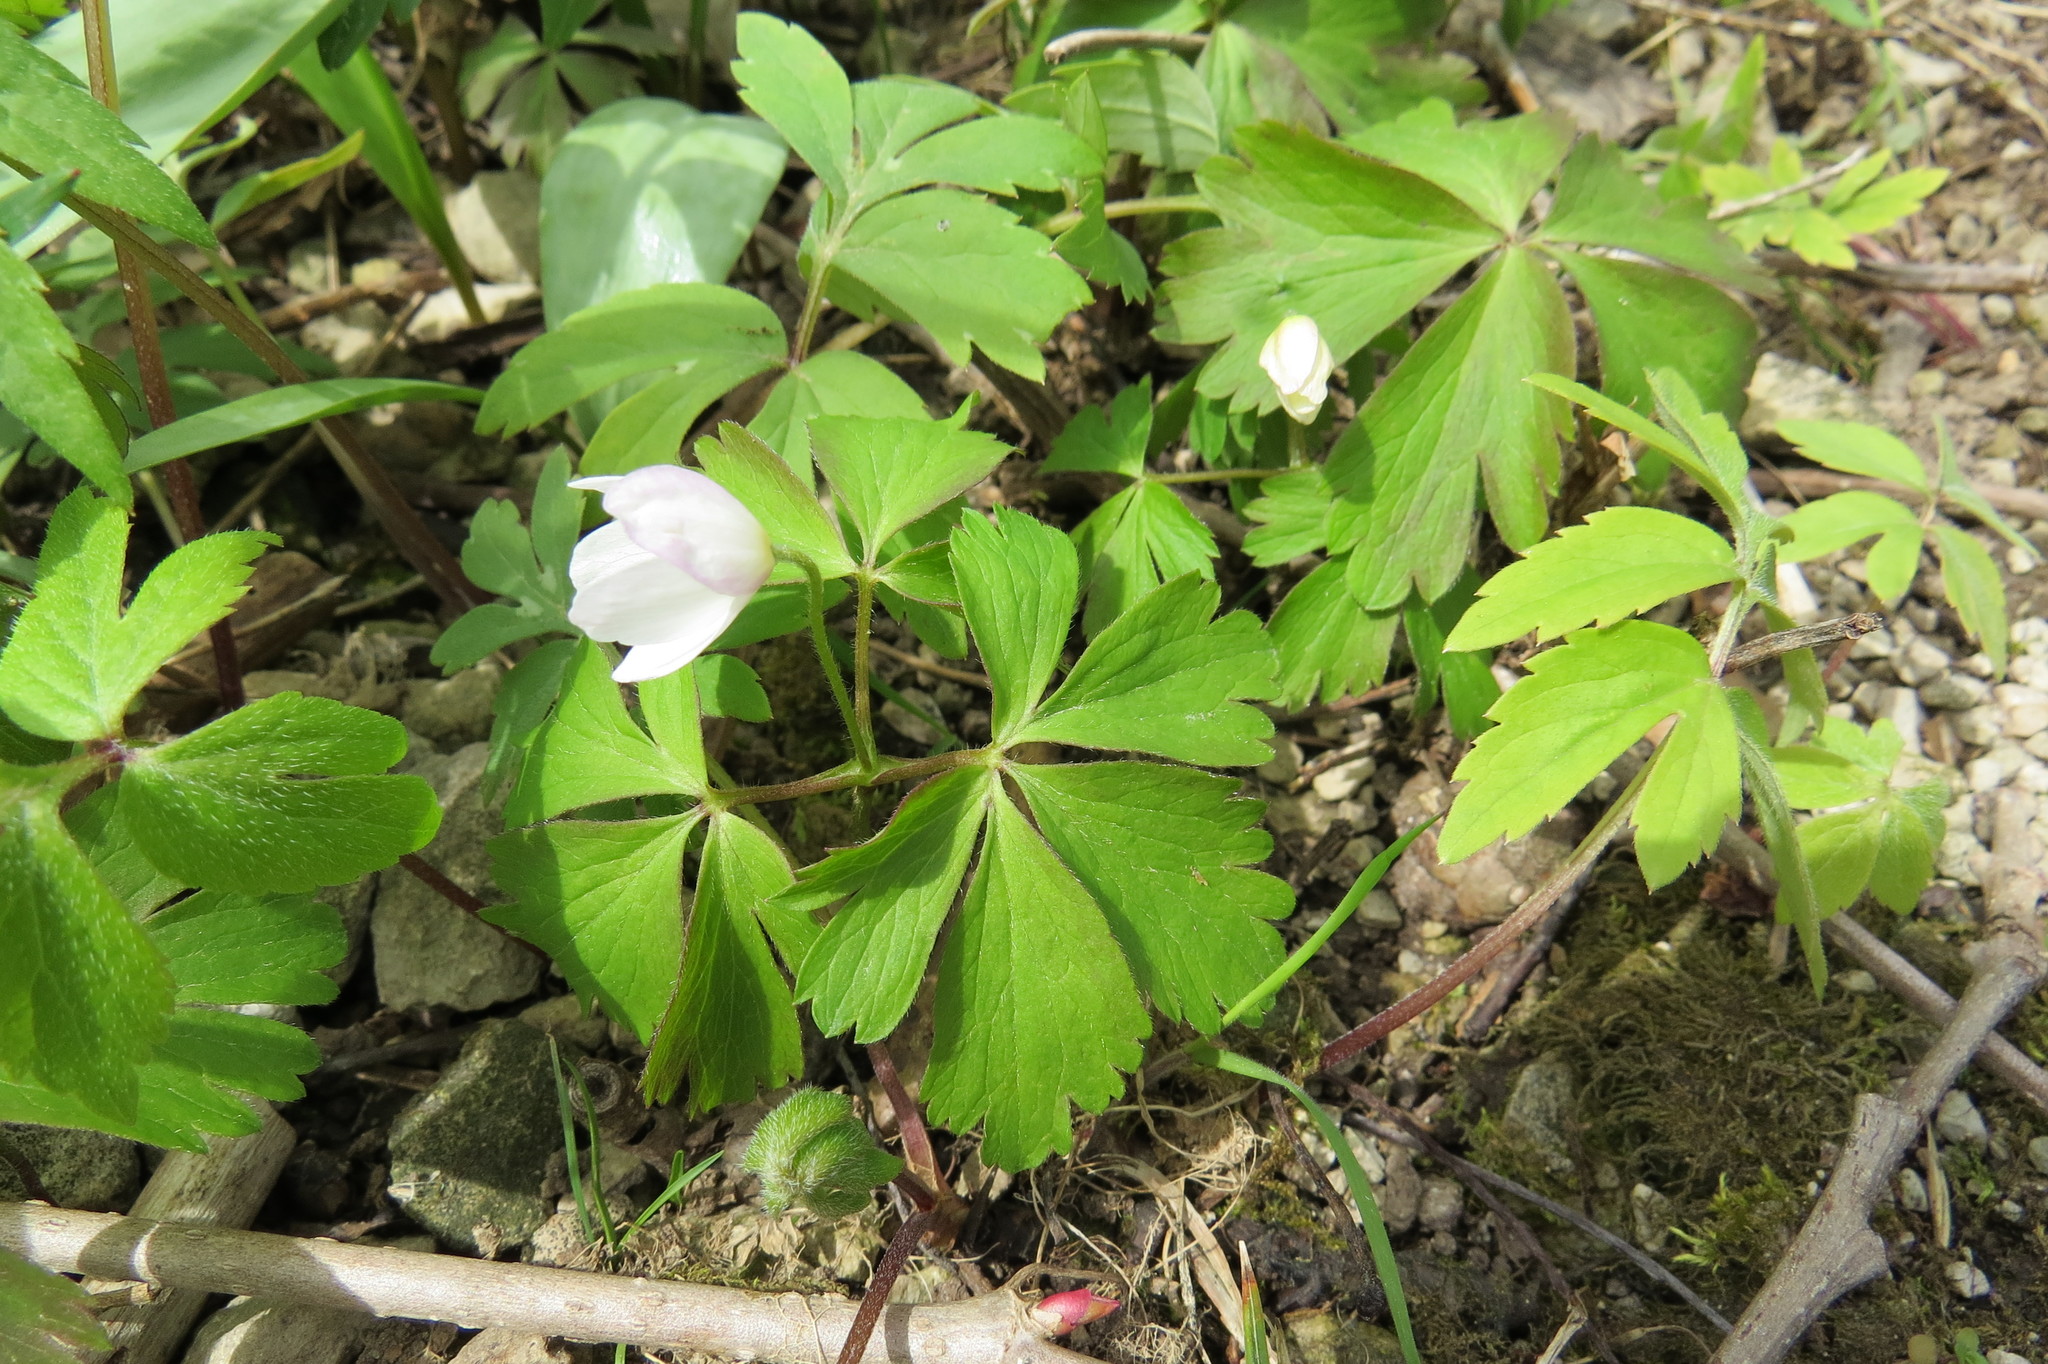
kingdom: Plantae
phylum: Tracheophyta
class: Magnoliopsida
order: Ranunculales
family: Ranunculaceae
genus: Anemone
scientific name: Anemone quinquefolia
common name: Wood anemone
